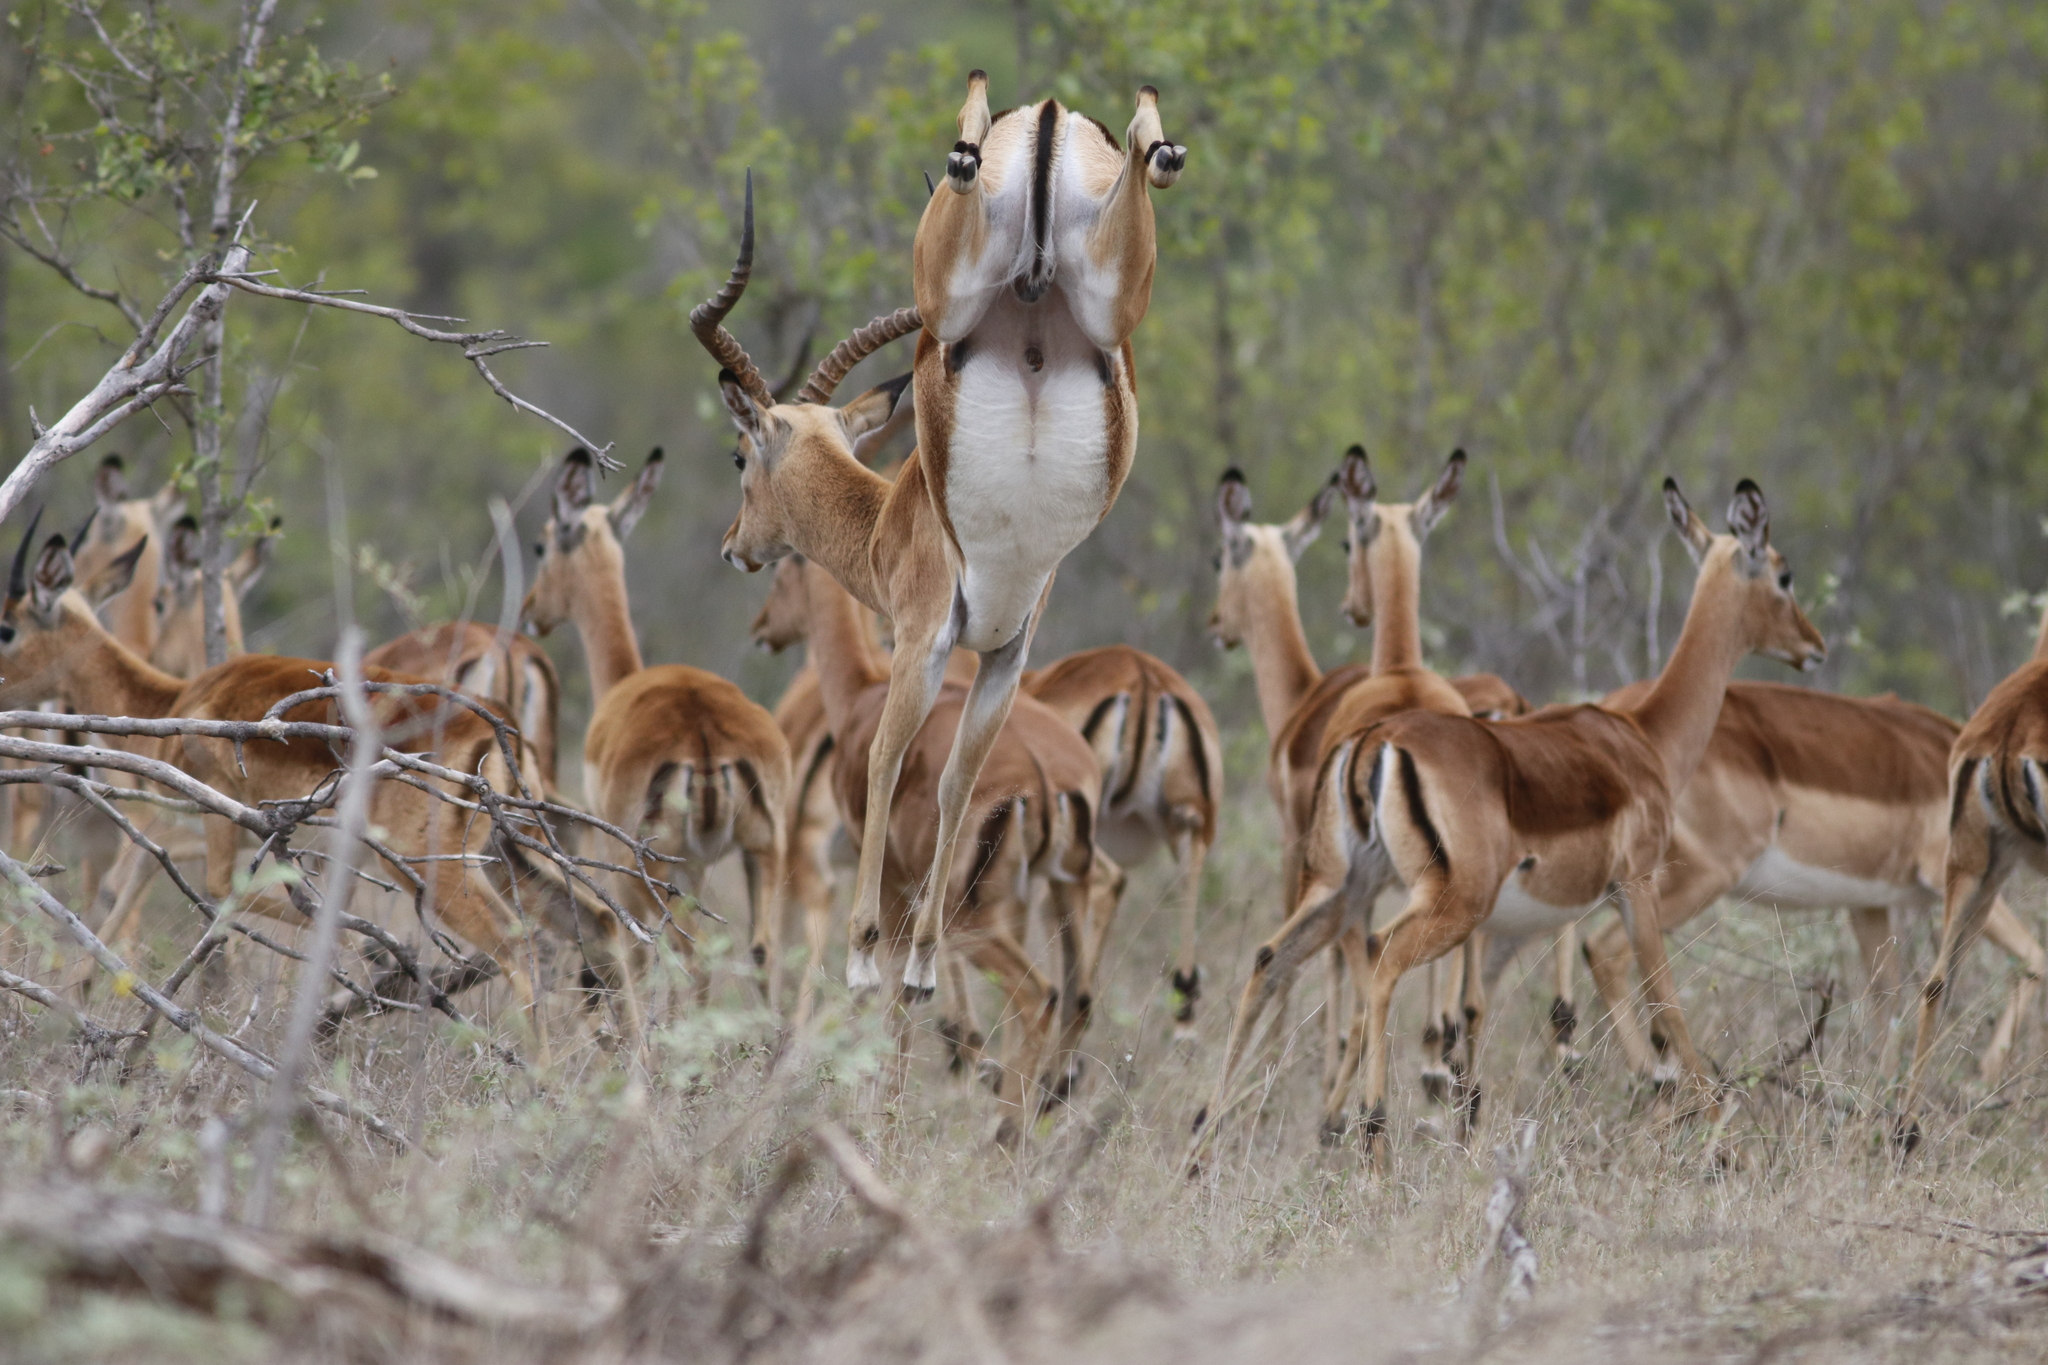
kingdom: Animalia
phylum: Chordata
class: Mammalia
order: Artiodactyla
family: Bovidae
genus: Aepyceros
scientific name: Aepyceros melampus
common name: Impala
